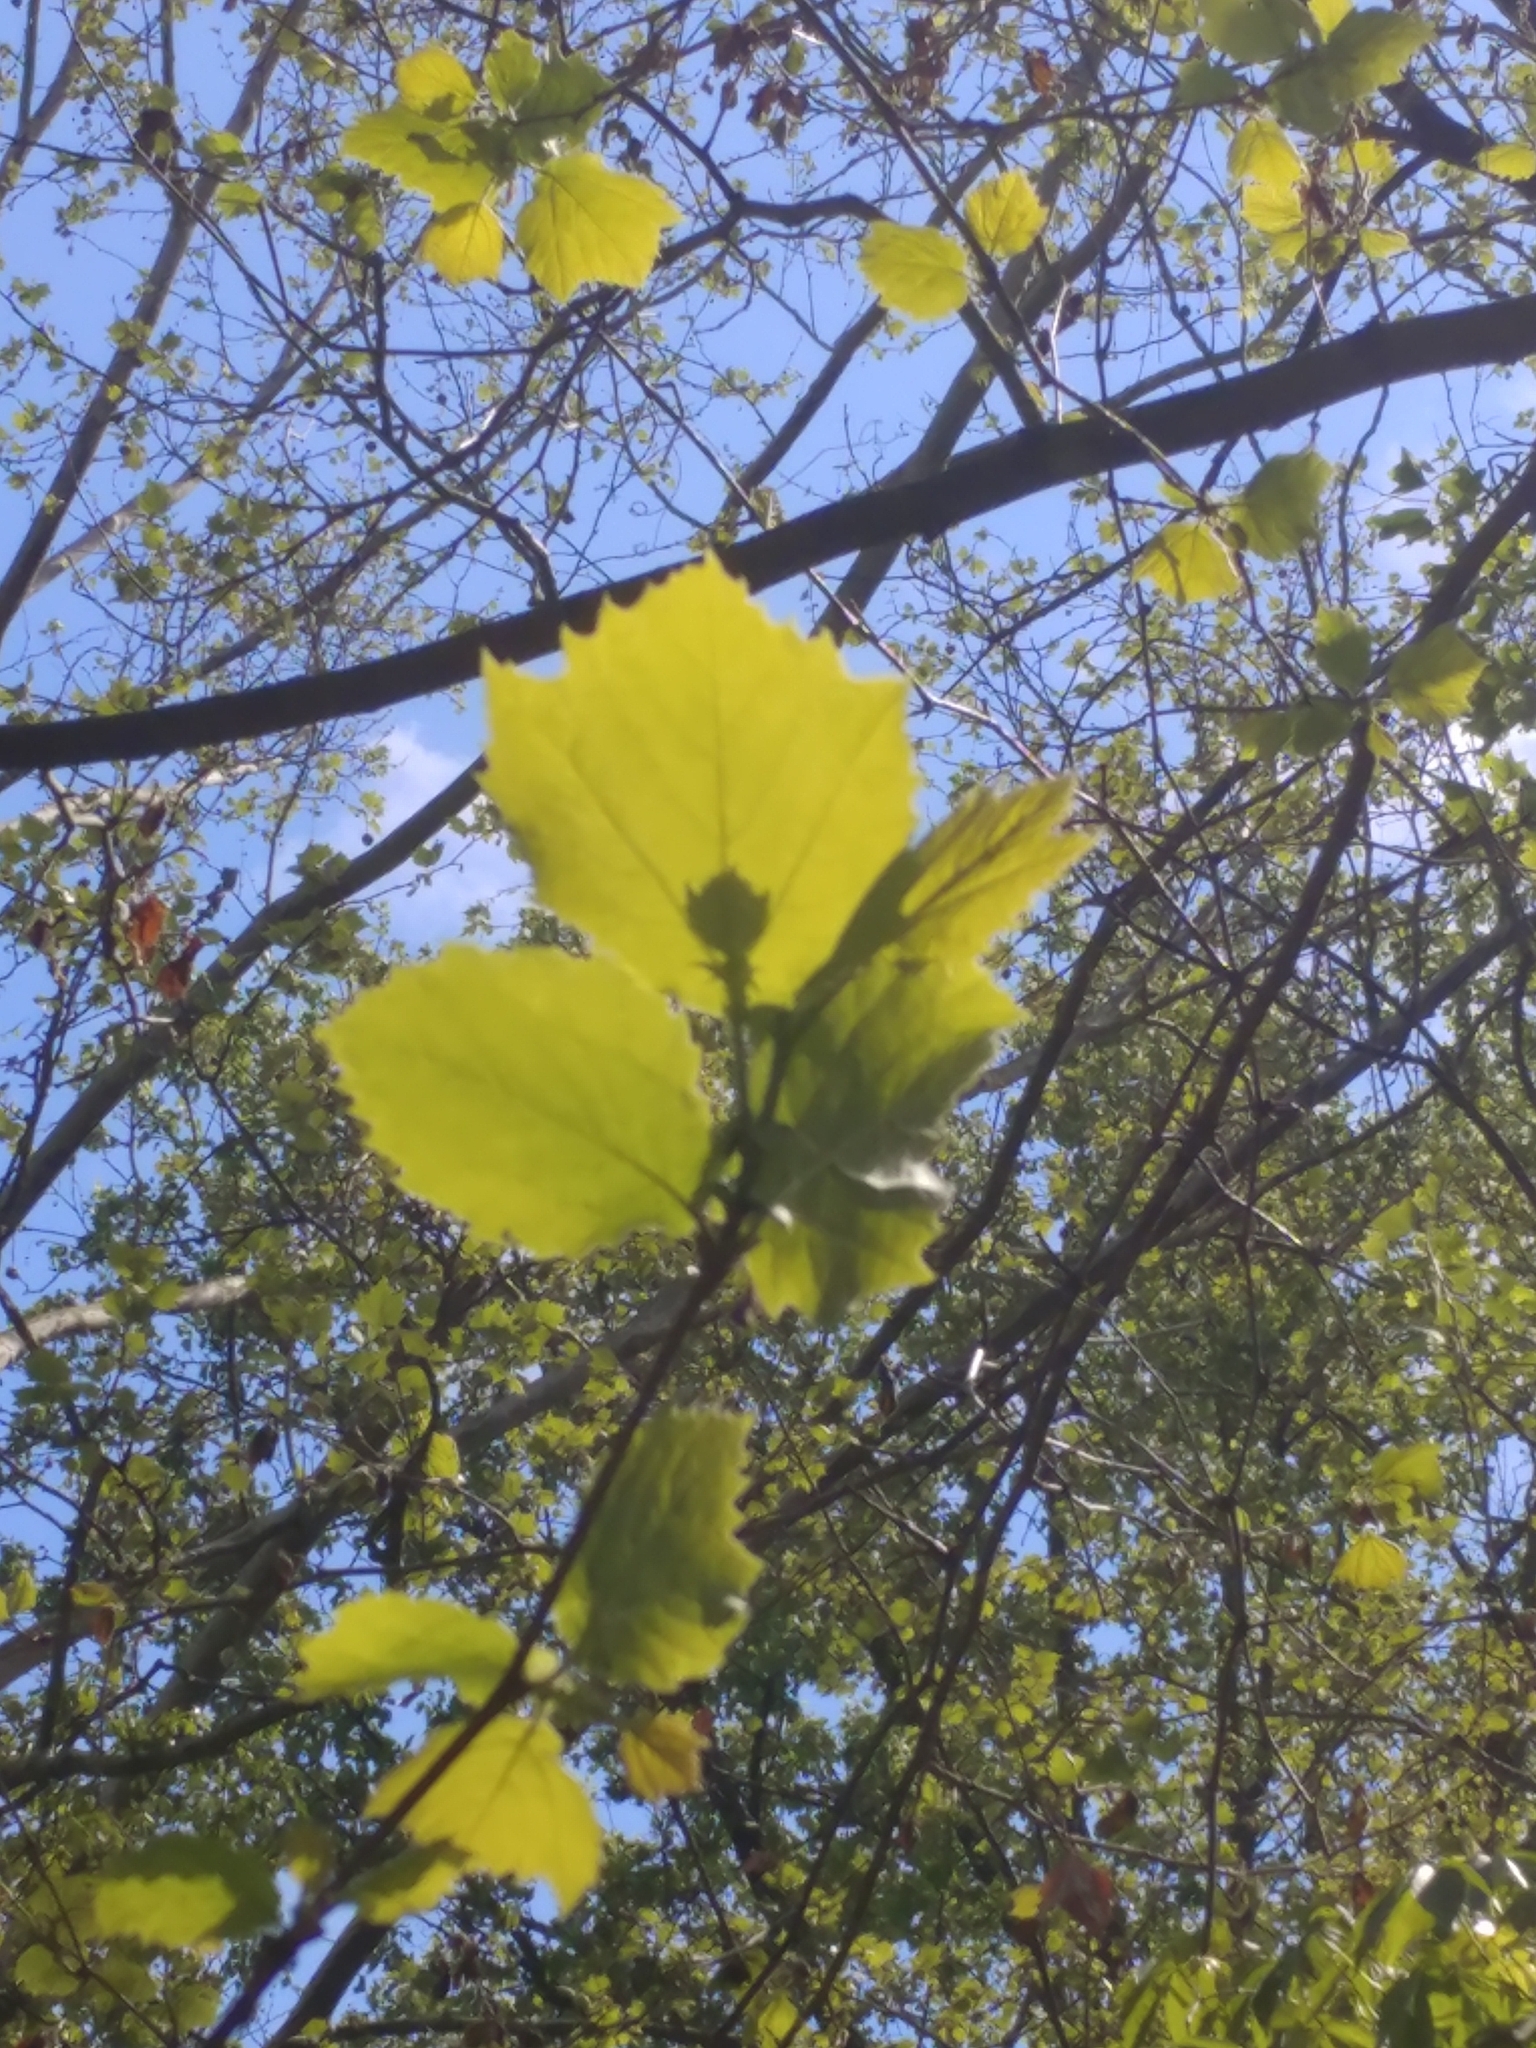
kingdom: Plantae
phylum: Tracheophyta
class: Magnoliopsida
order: Proteales
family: Platanaceae
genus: Platanus
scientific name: Platanus occidentalis
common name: American sycamore
